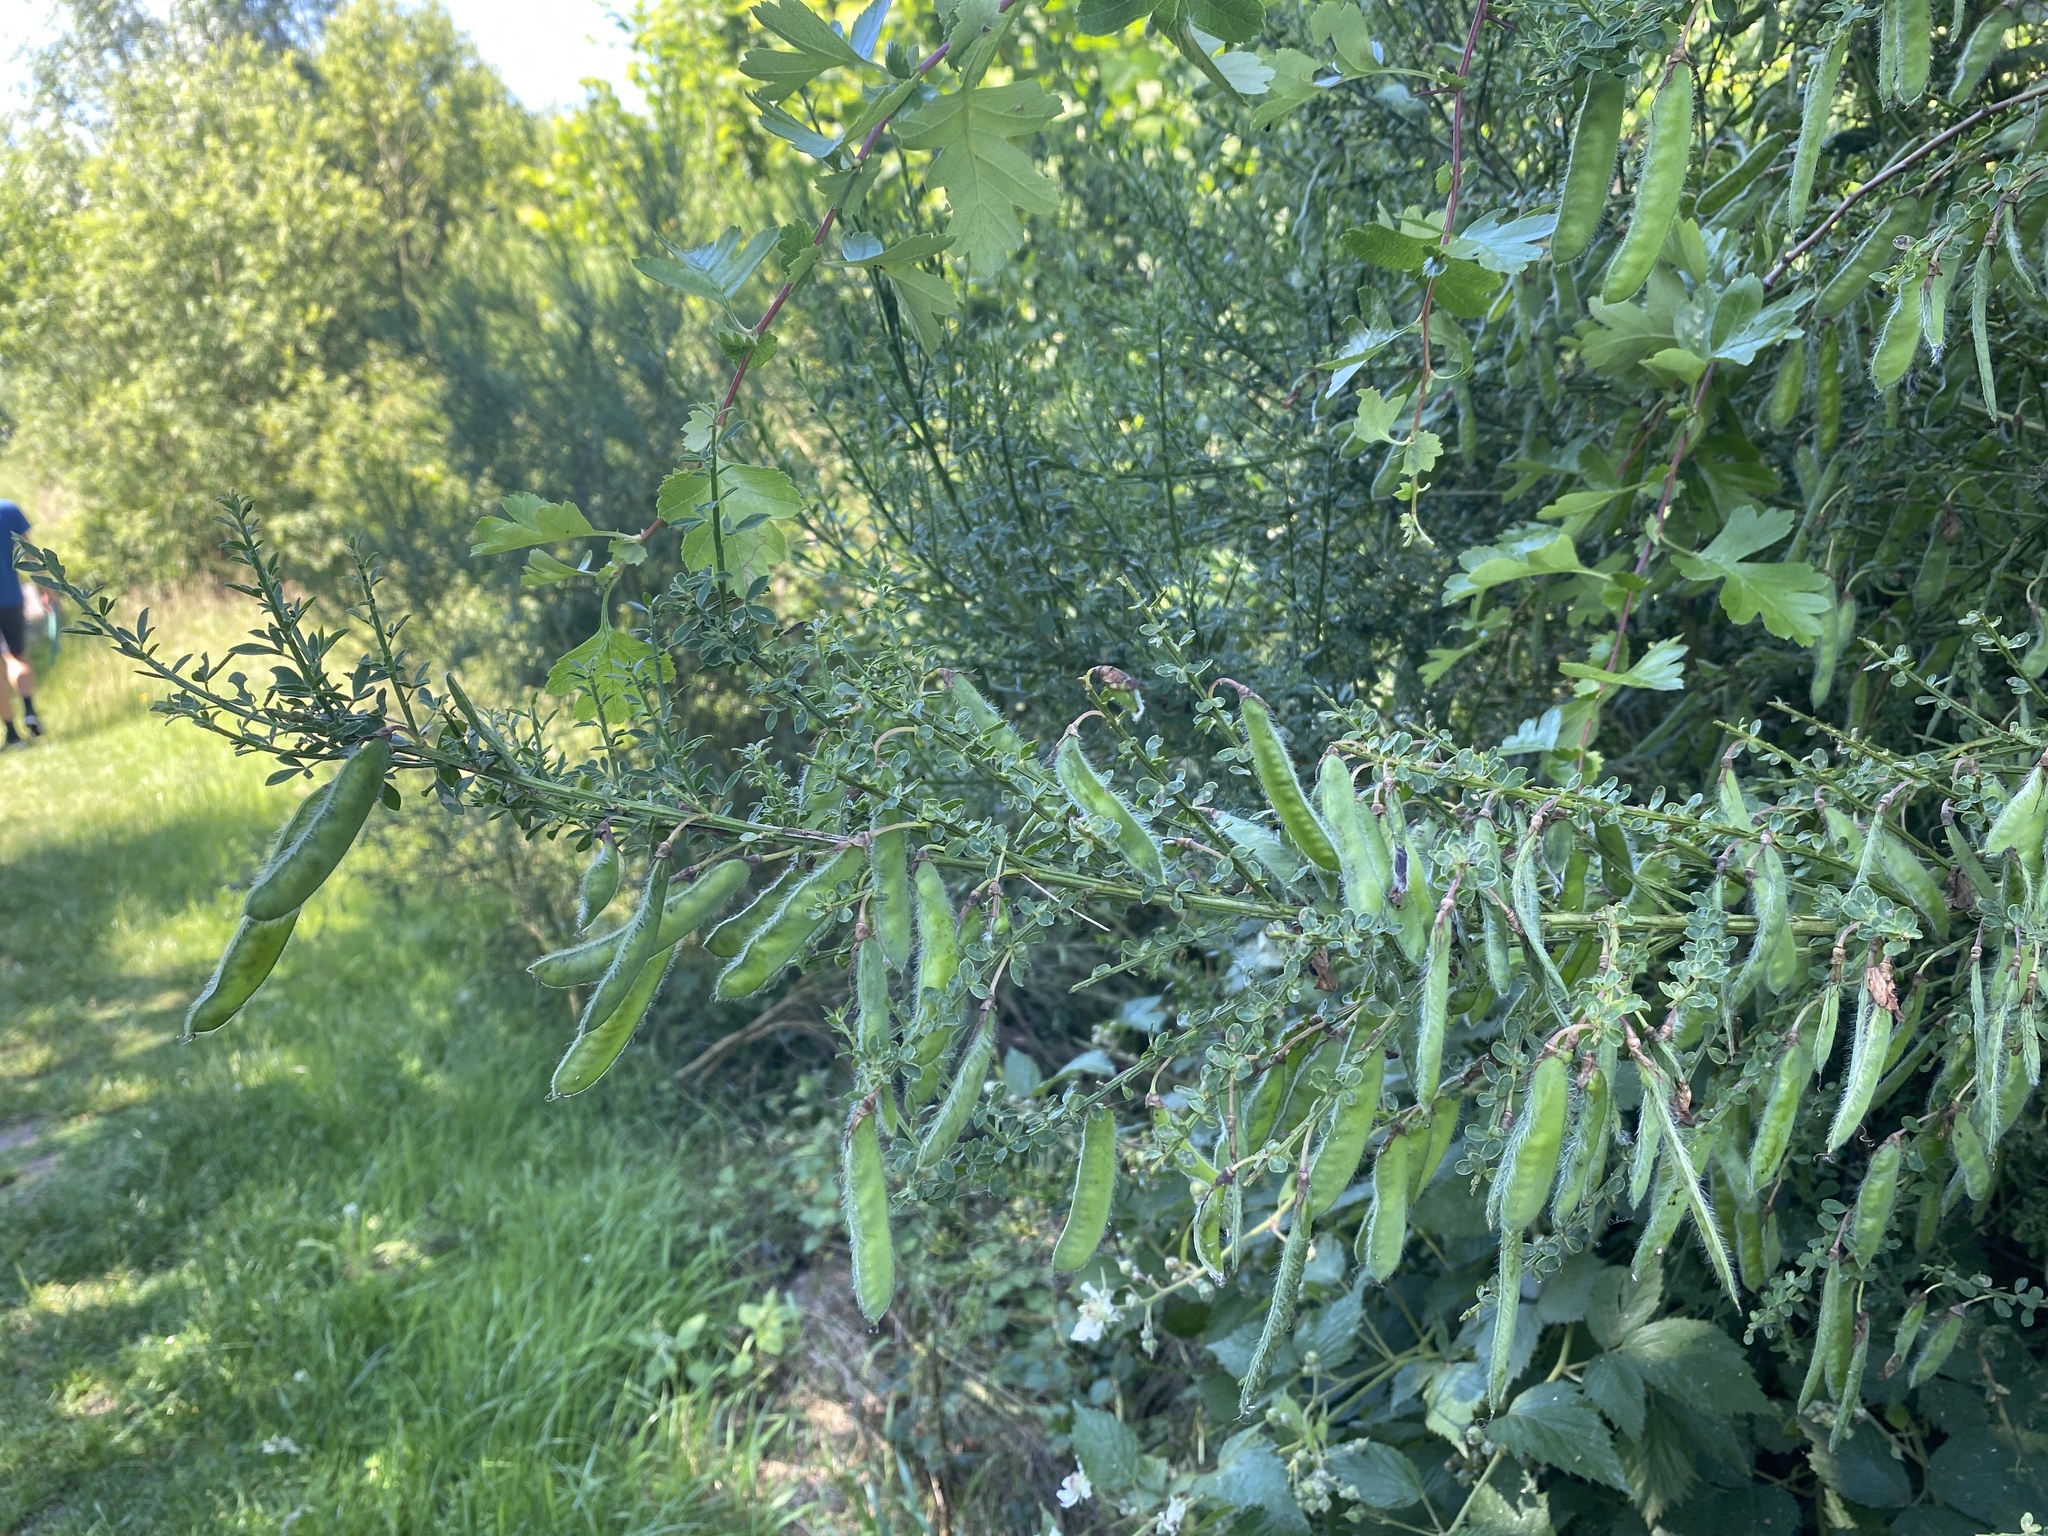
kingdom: Plantae
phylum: Tracheophyta
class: Magnoliopsida
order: Fabales
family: Fabaceae
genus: Cytisus
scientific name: Cytisus scoparius
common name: Scotch broom
